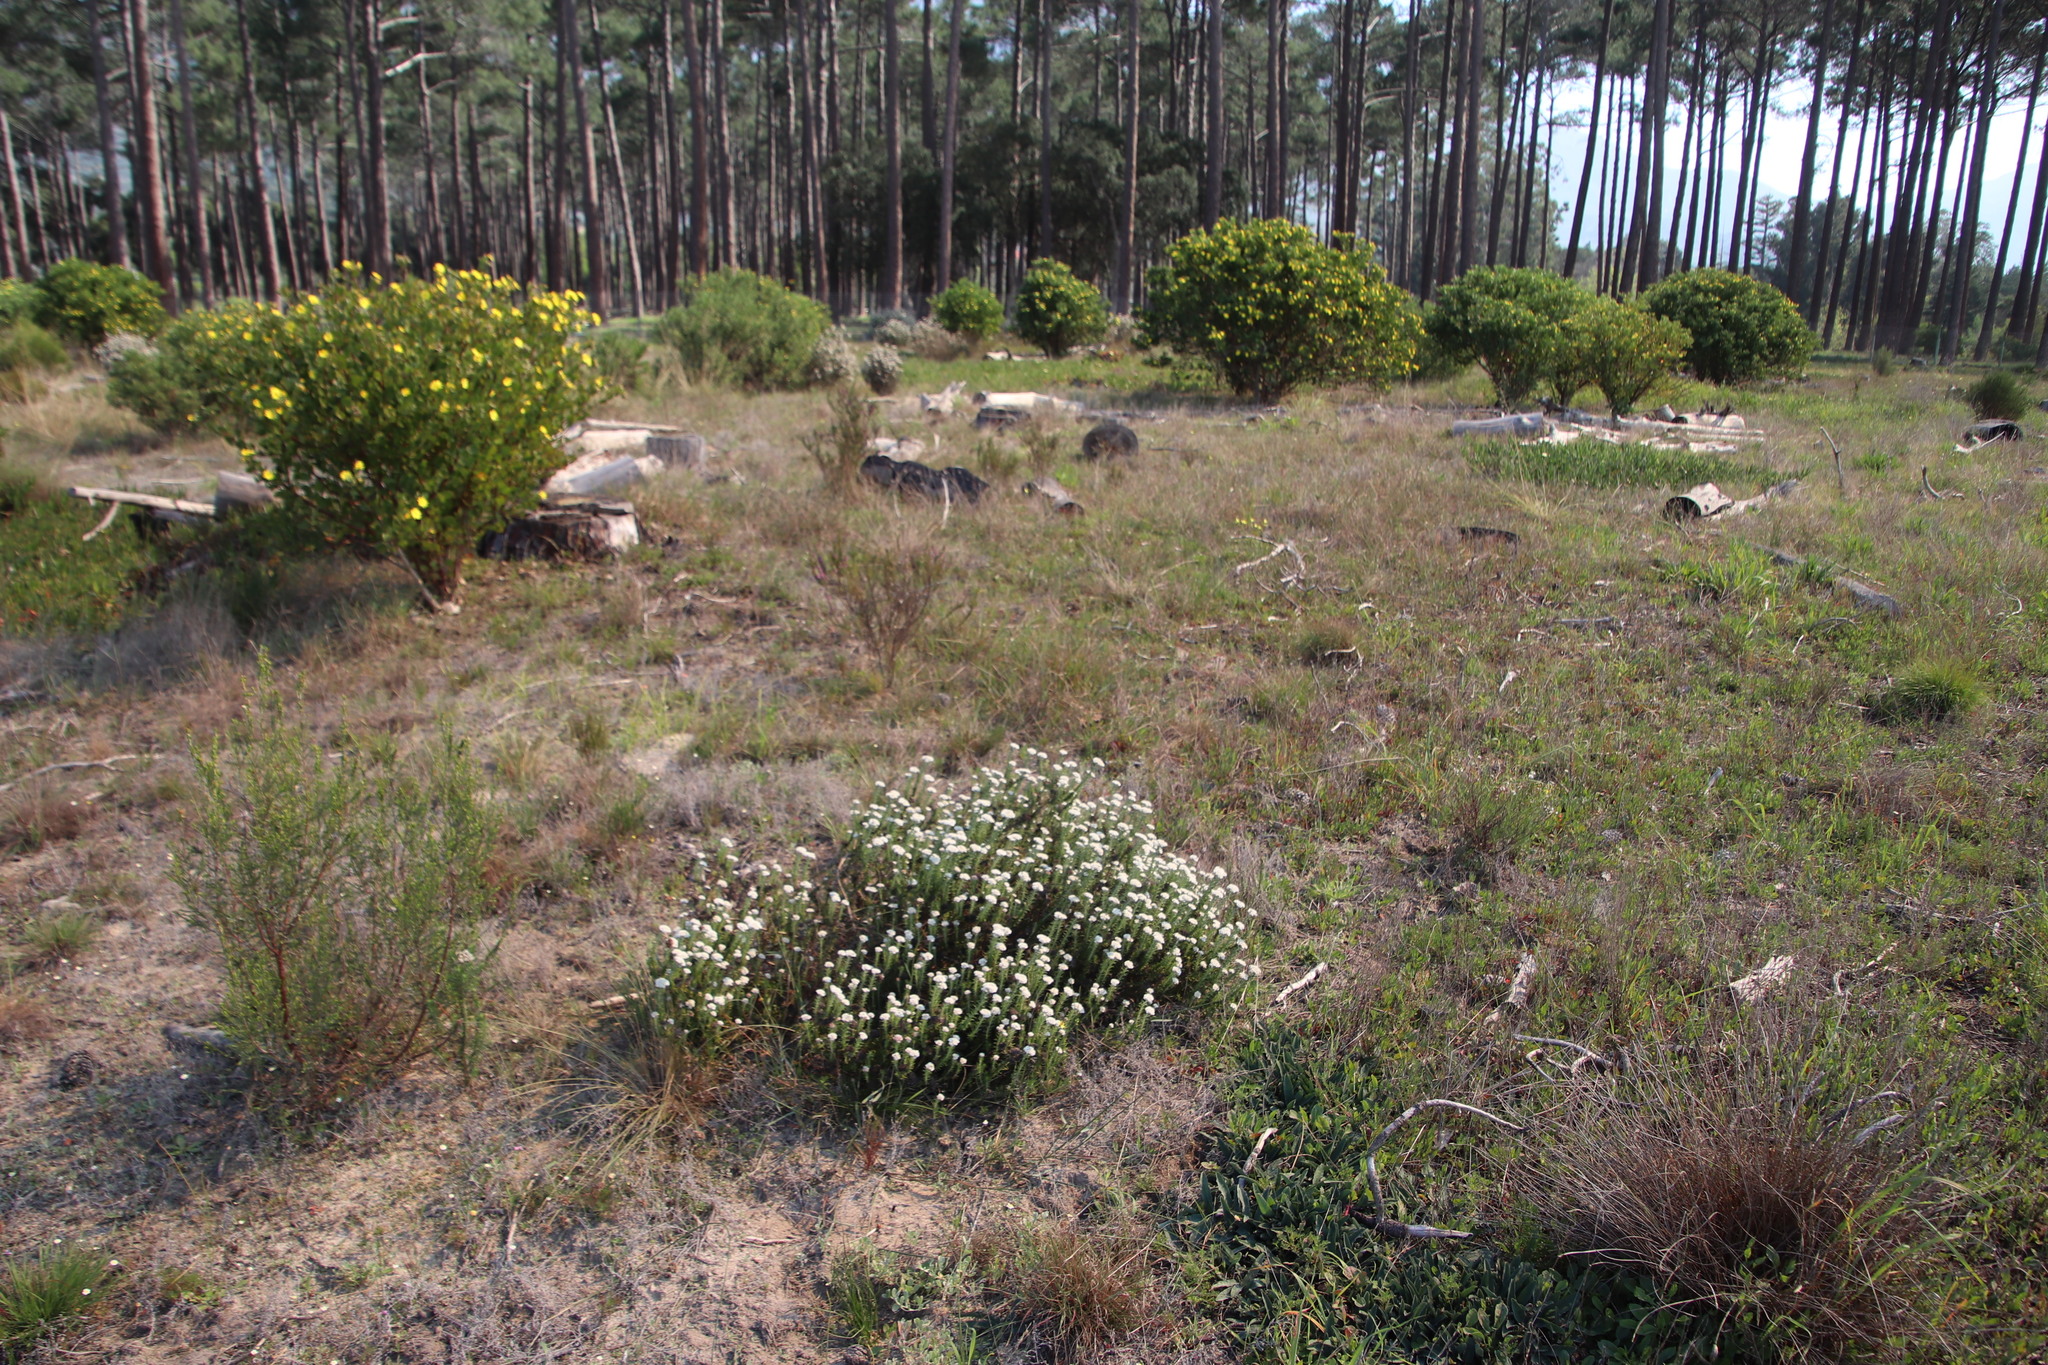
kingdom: Plantae
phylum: Tracheophyta
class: Magnoliopsida
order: Asterales
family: Asteraceae
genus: Metalasia
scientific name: Metalasia pulchella
